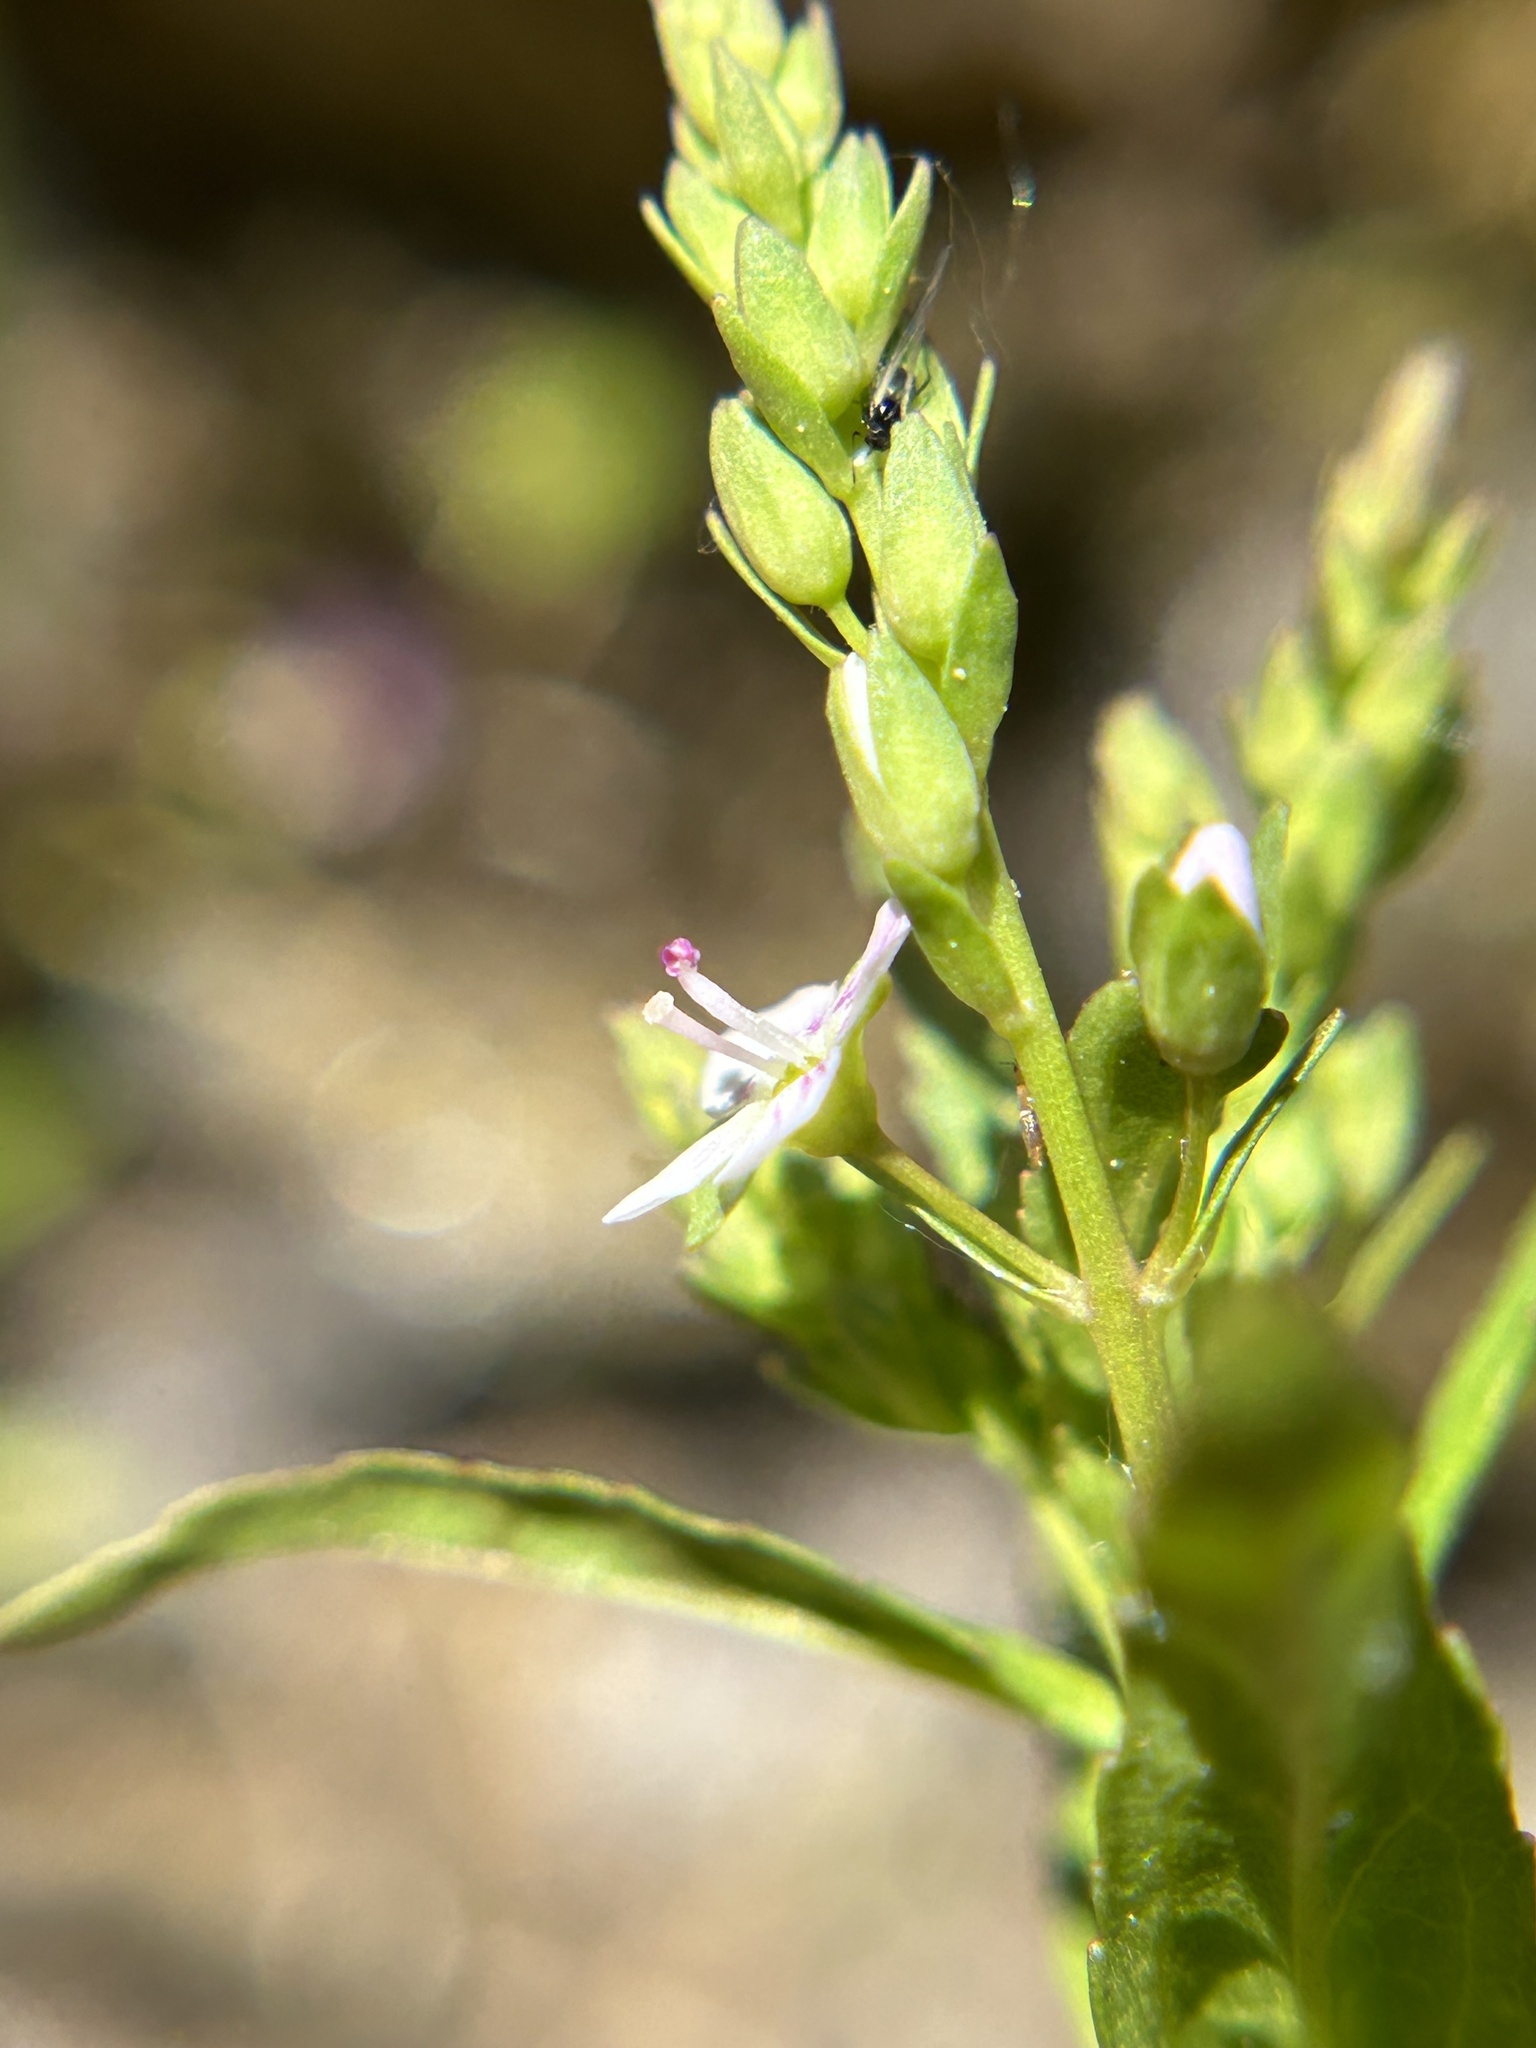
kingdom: Plantae
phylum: Tracheophyta
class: Magnoliopsida
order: Lamiales
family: Plantaginaceae
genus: Veronica
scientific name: Veronica catenata
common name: Pink water-speedwell
